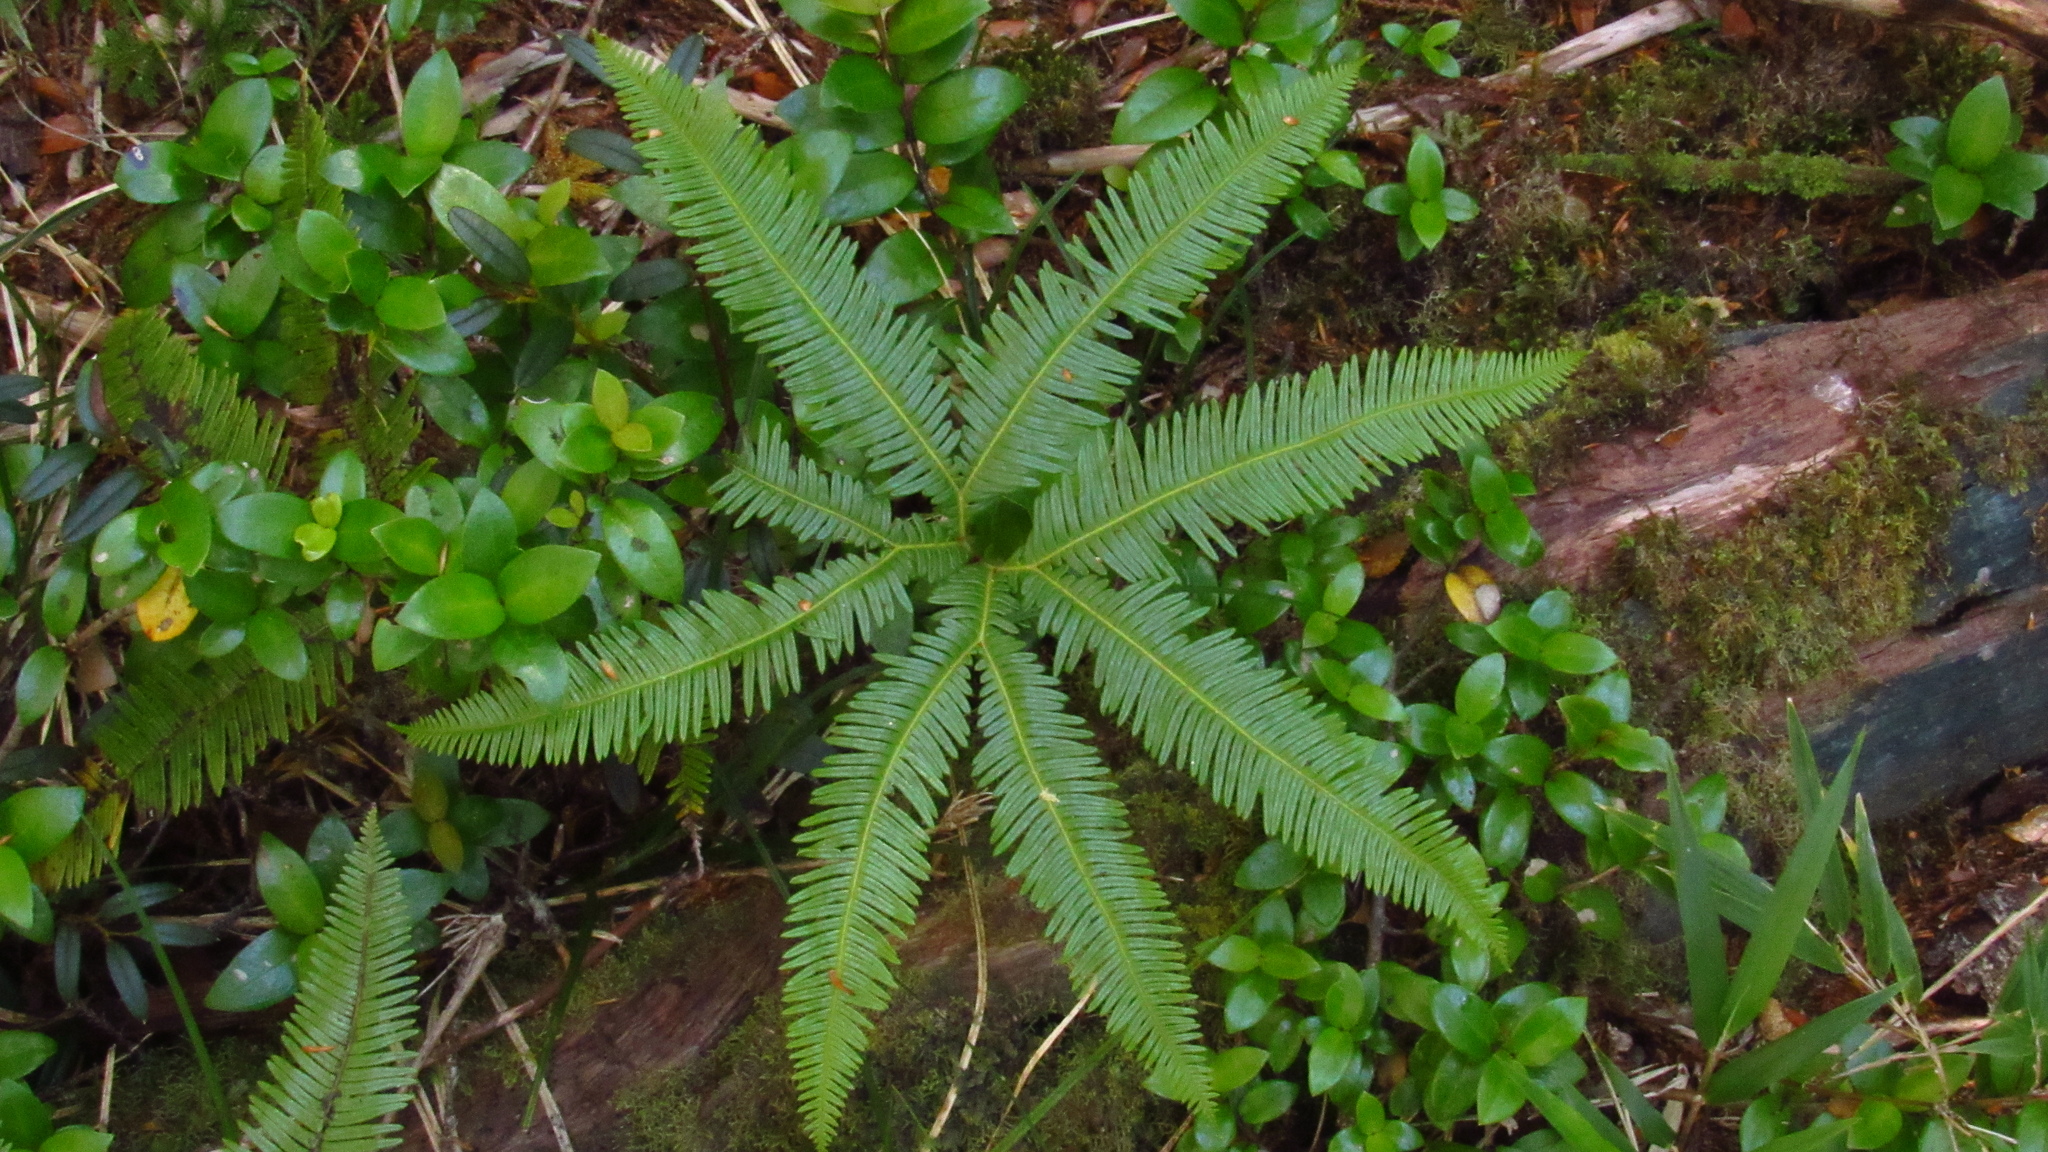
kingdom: Plantae
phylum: Tracheophyta
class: Polypodiopsida
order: Gleicheniales
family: Gleicheniaceae
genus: Sticherus
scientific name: Sticherus quadripartitus
